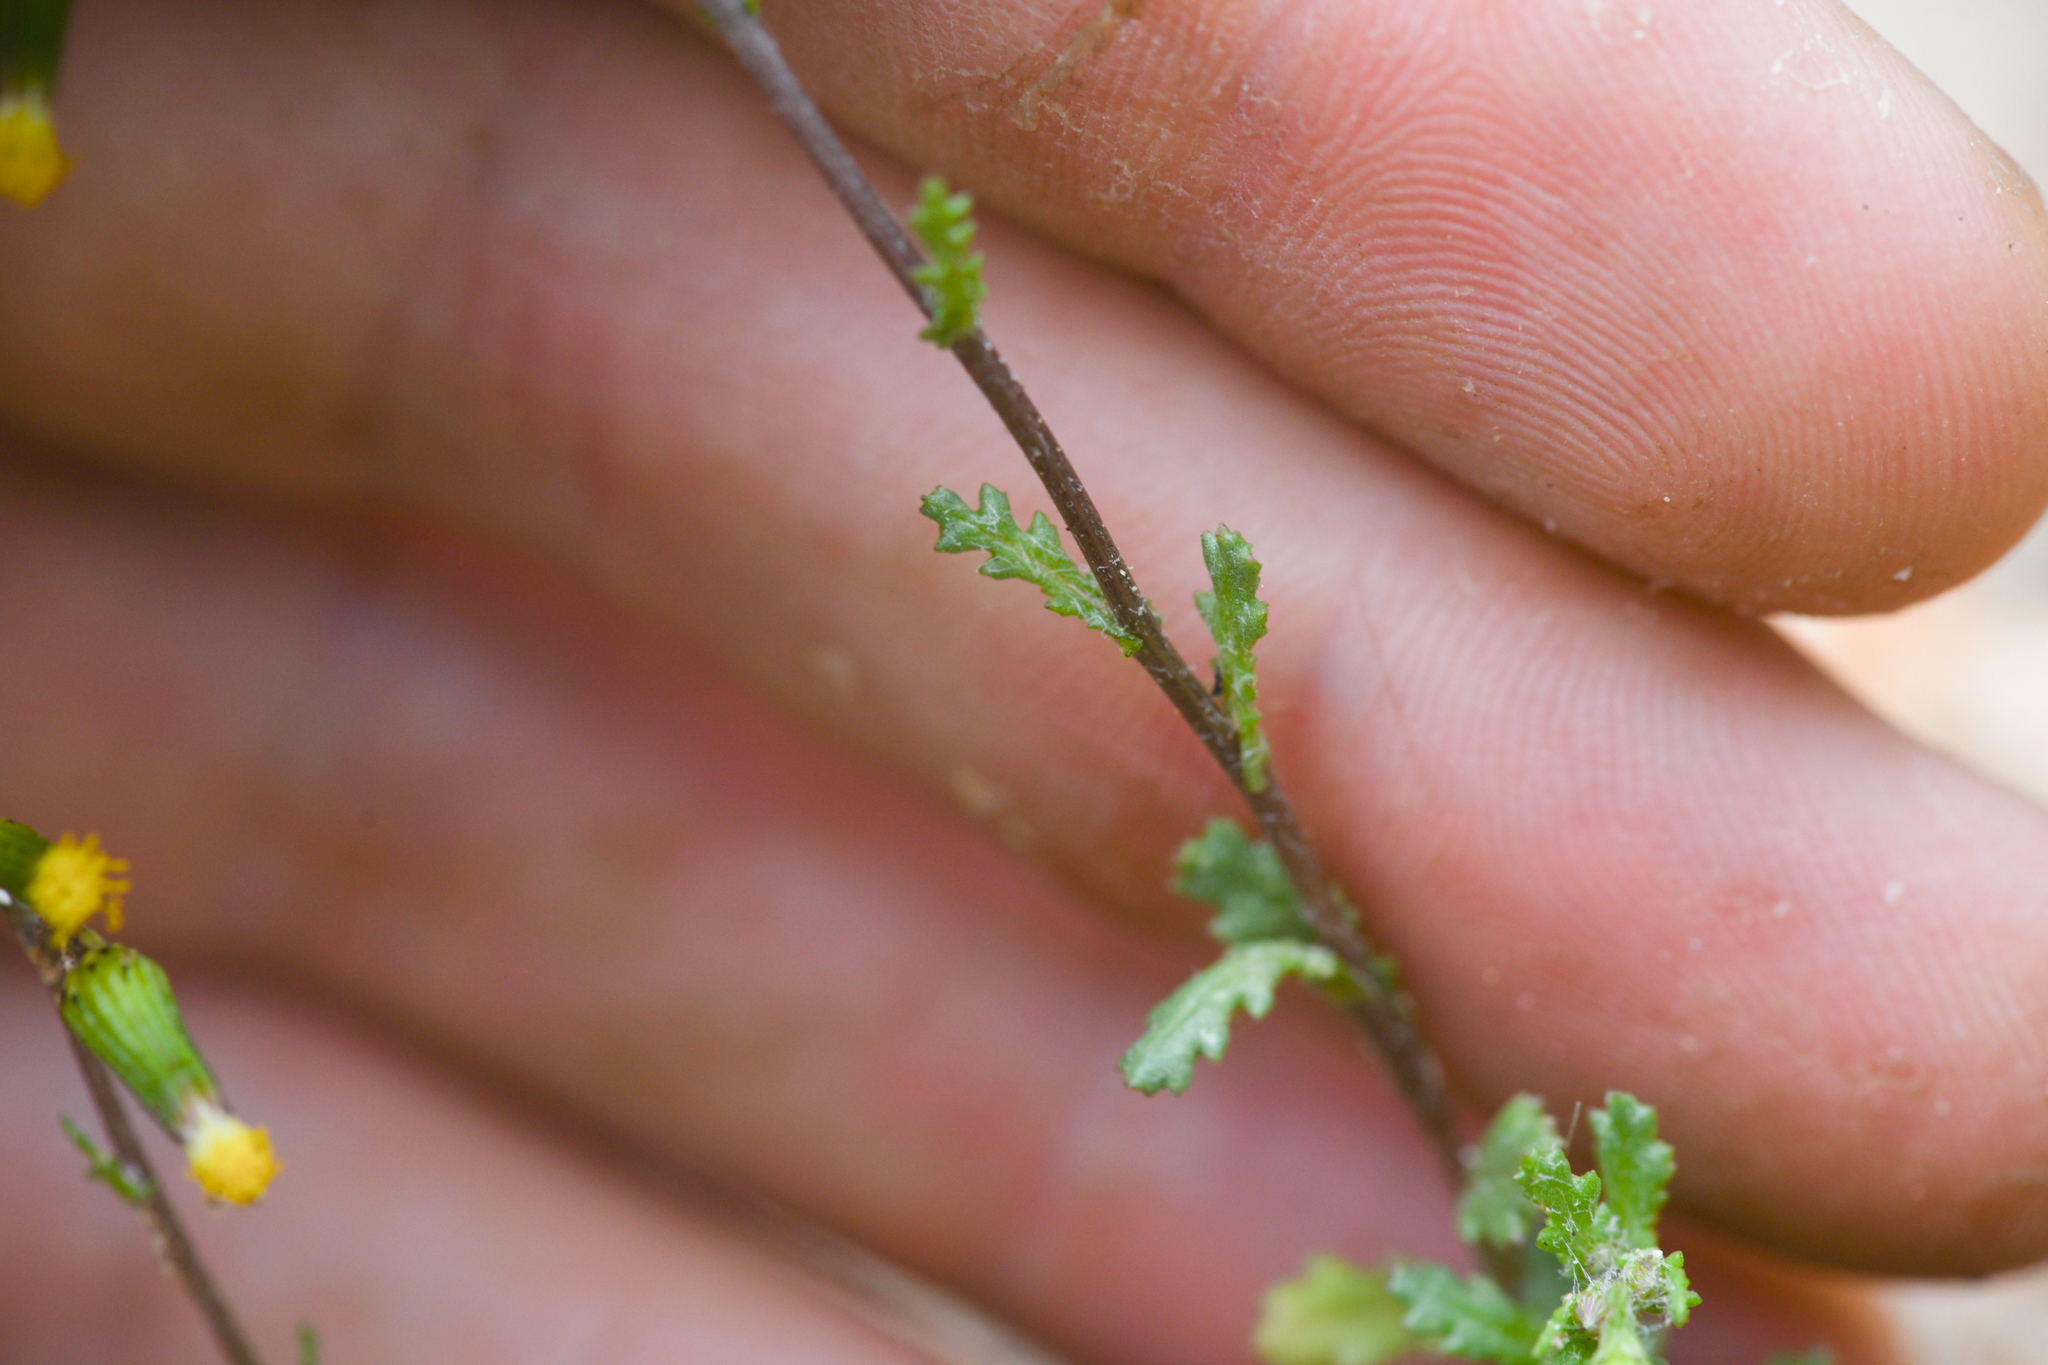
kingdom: Plantae
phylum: Tracheophyta
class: Magnoliopsida
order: Asterales
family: Asteraceae
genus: Senecio
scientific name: Senecio vulgaris
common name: Old-man-in-the-spring
